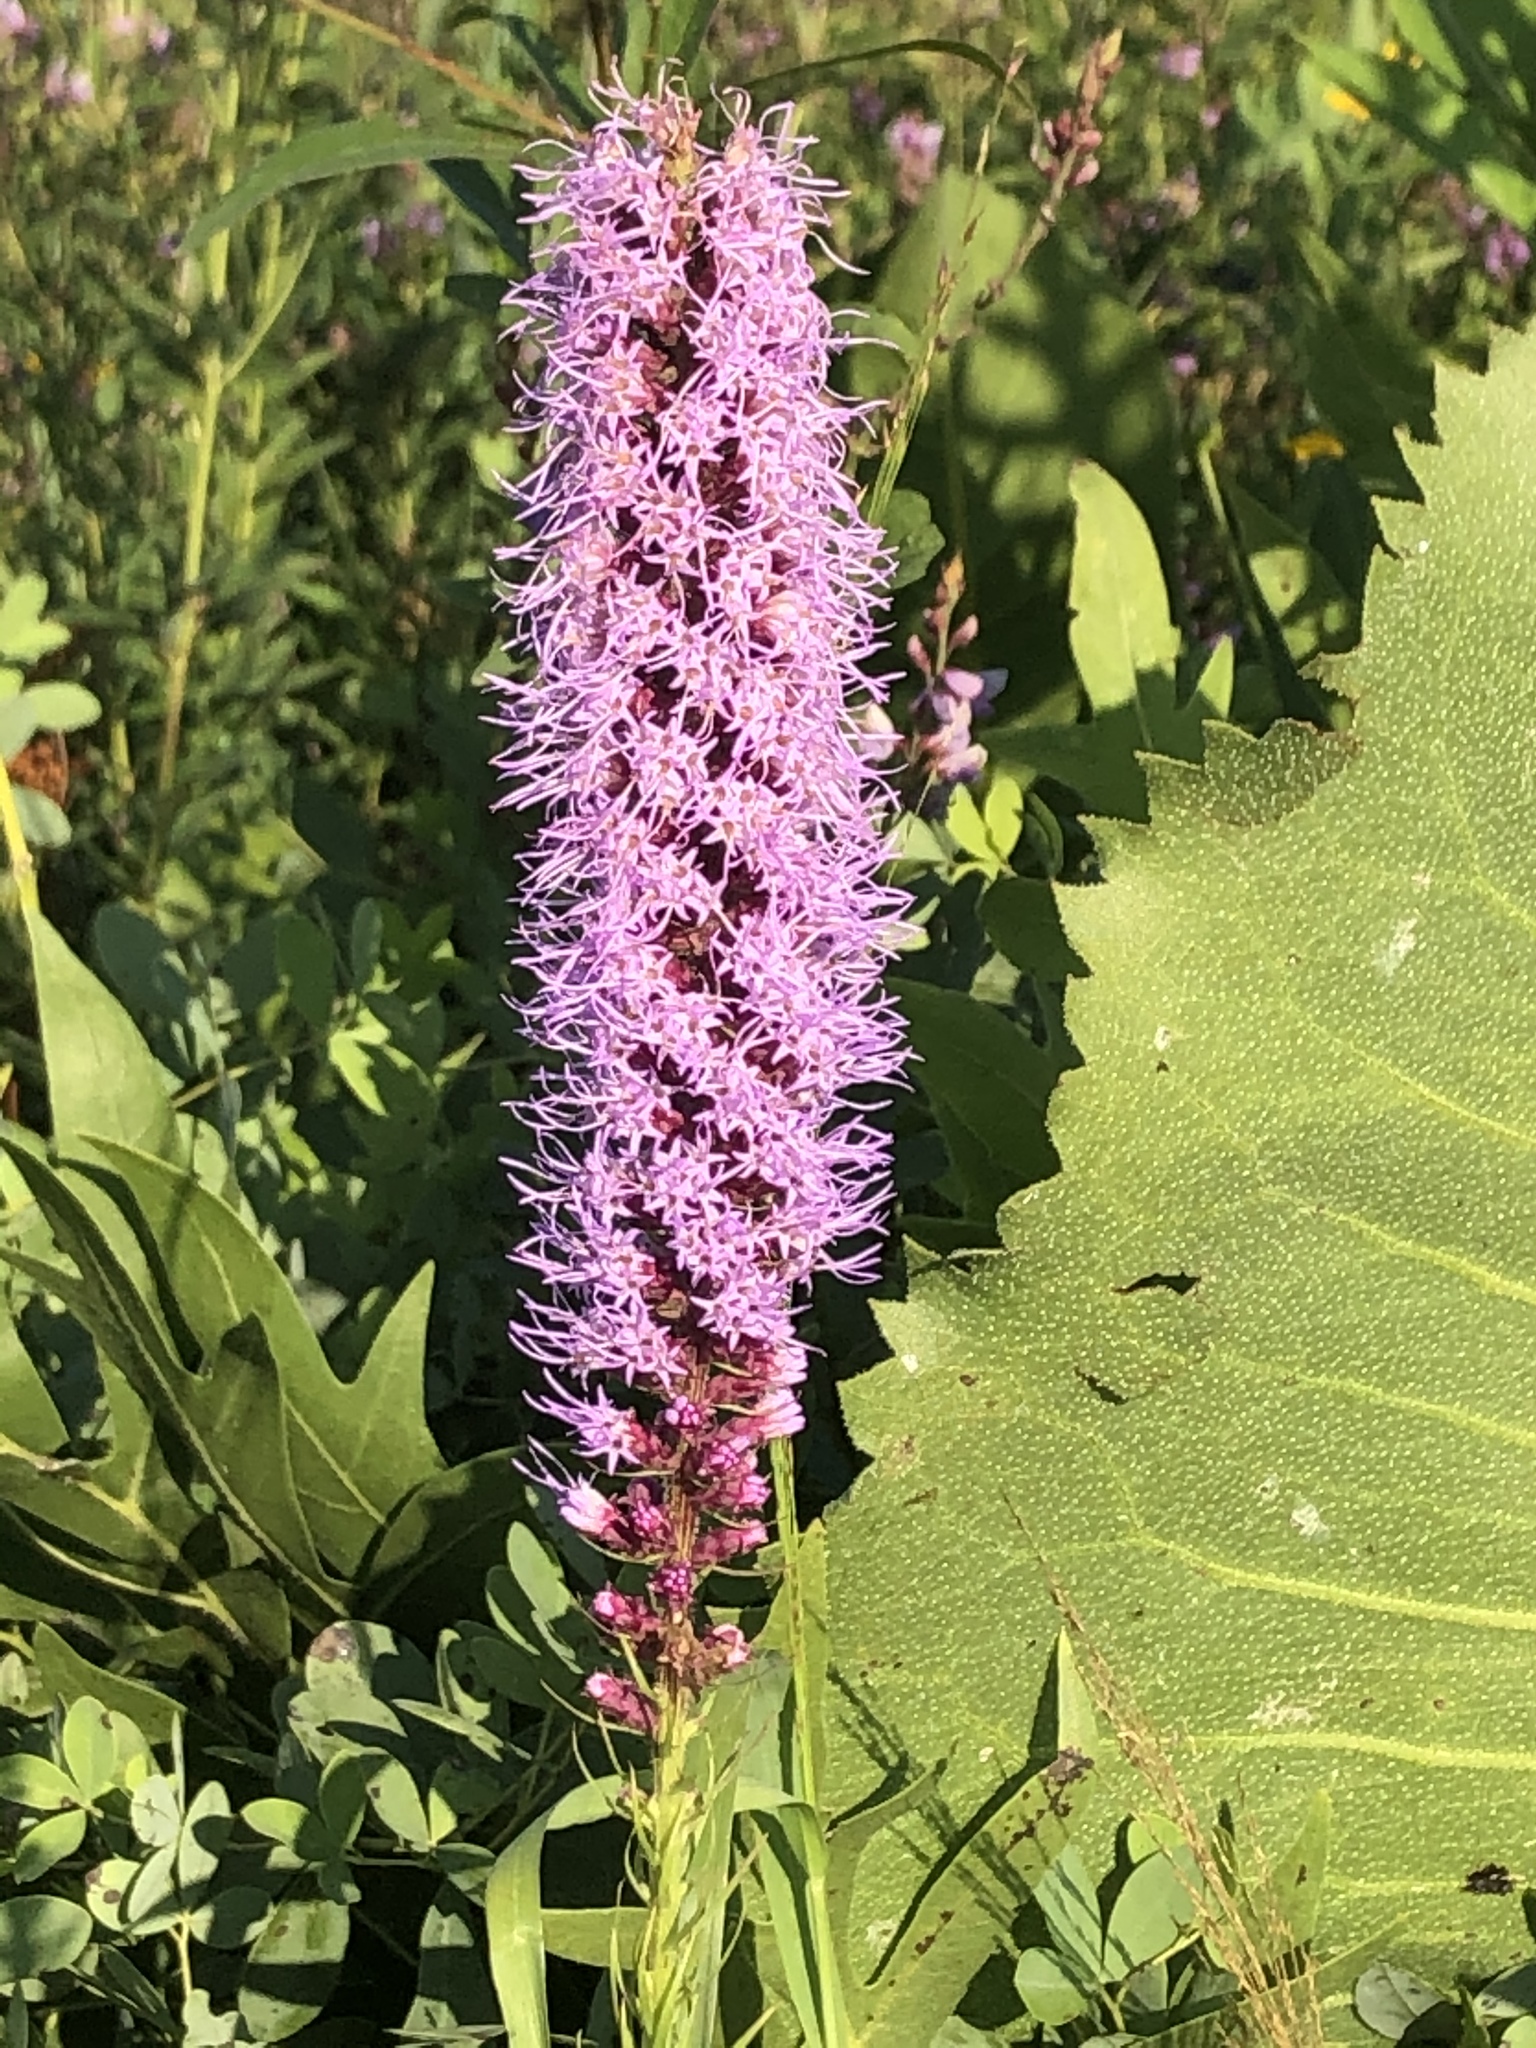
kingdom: Plantae
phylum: Tracheophyta
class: Magnoliopsida
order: Asterales
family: Asteraceae
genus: Liatris
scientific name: Liatris pycnostachya
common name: Cattail gayfeather
